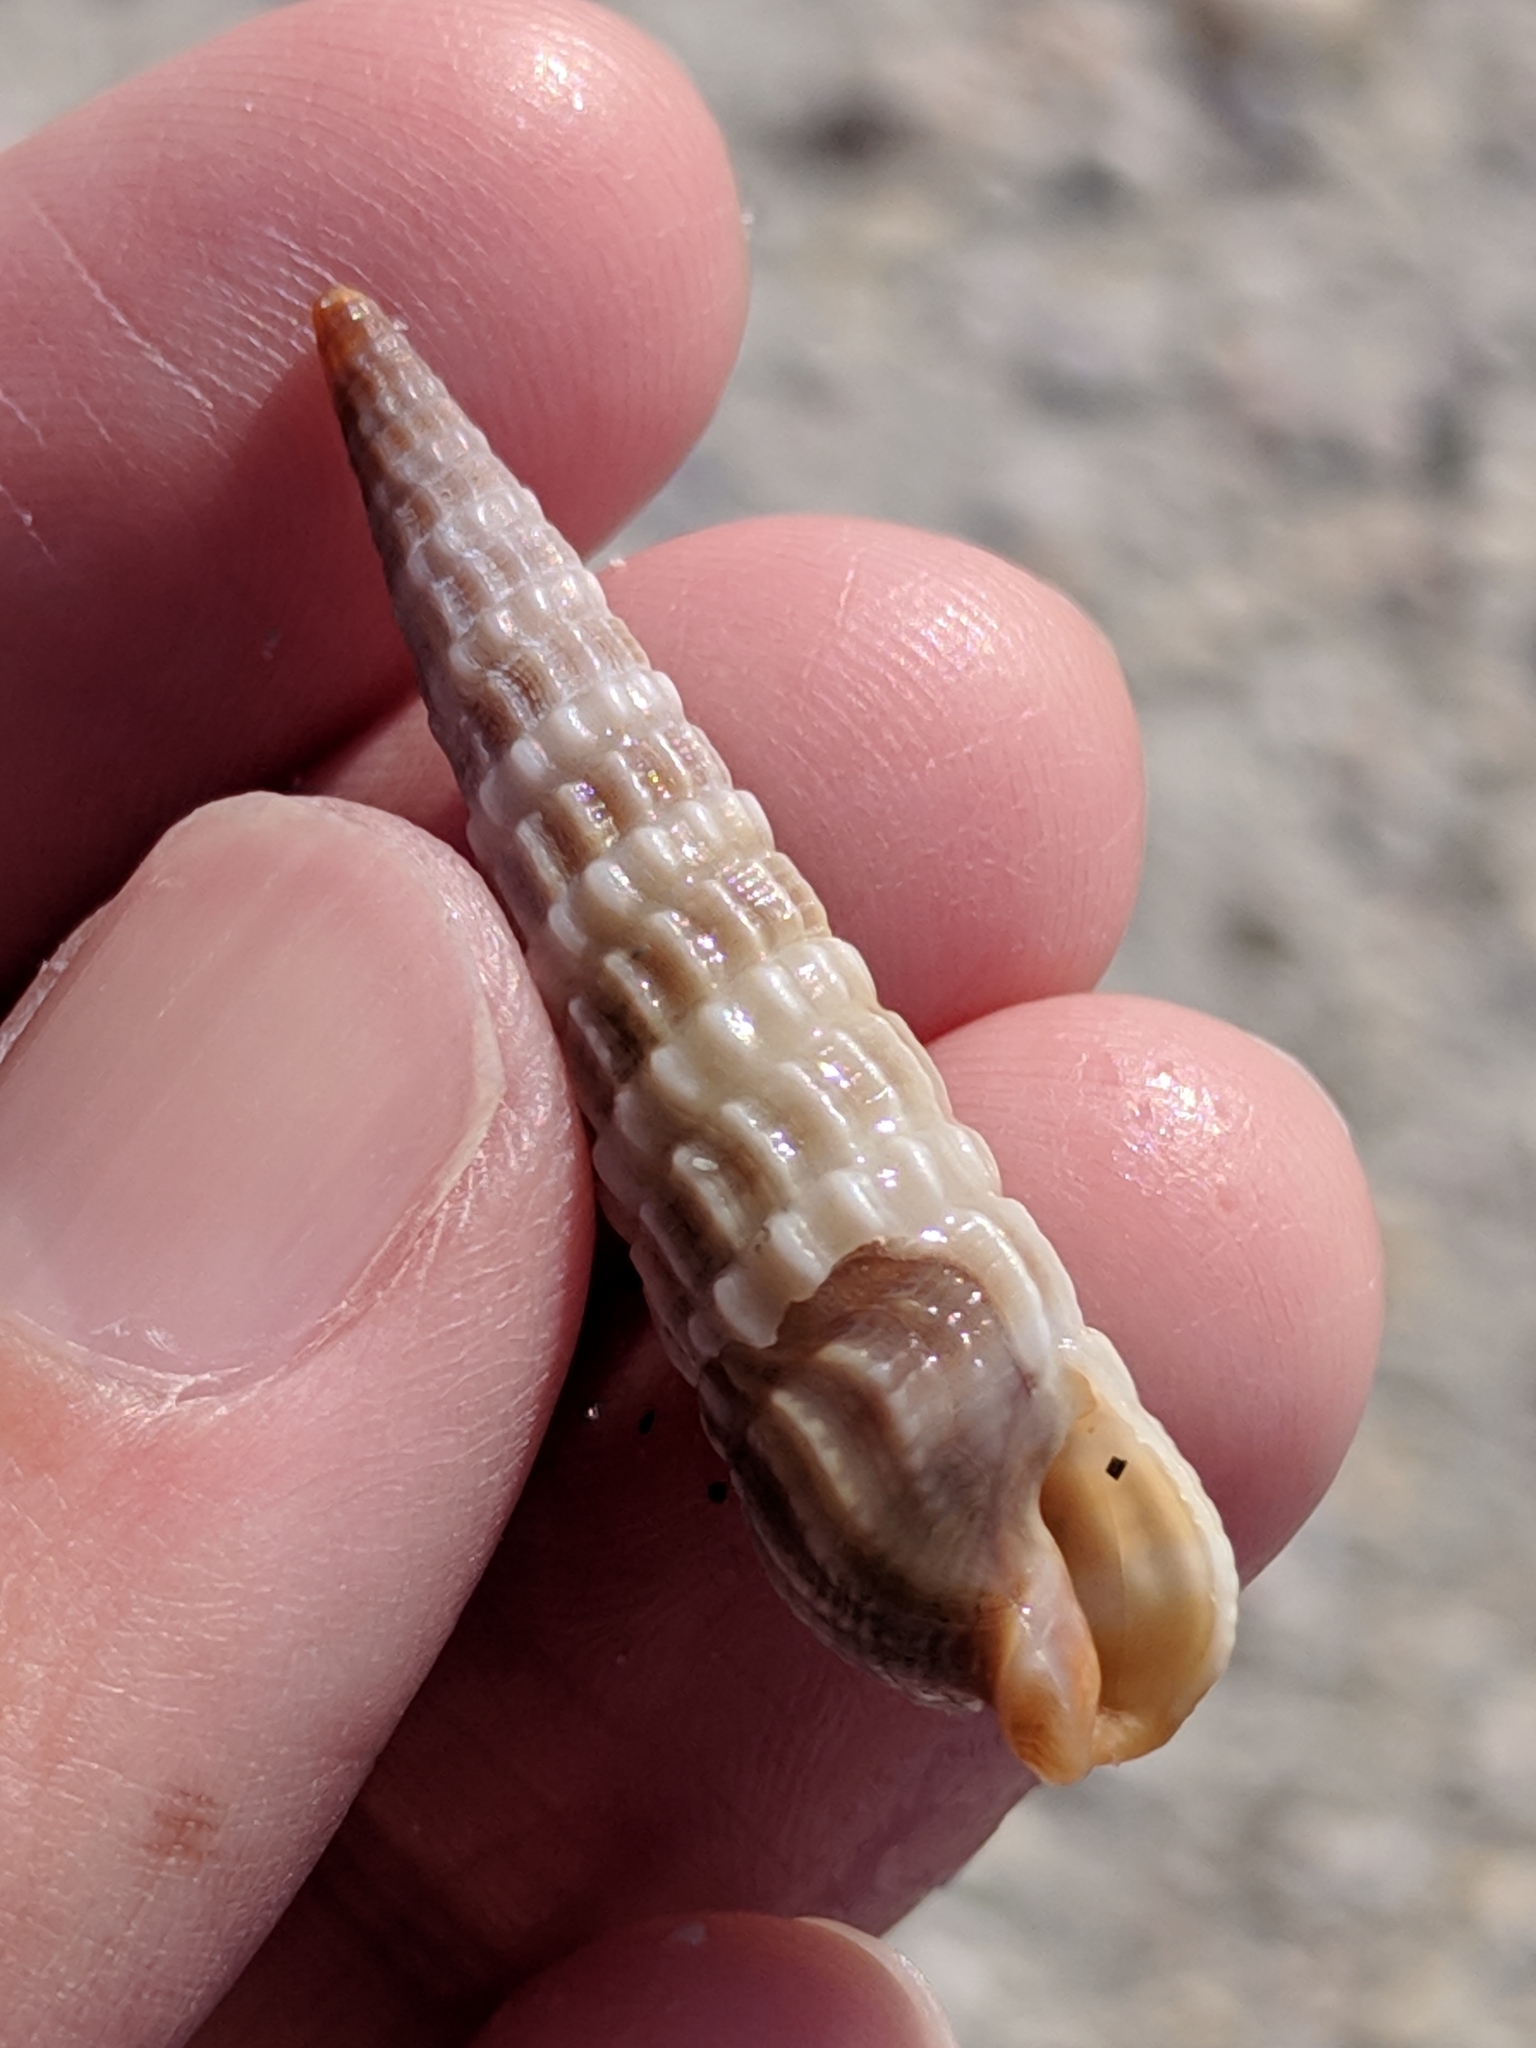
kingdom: Animalia
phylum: Mollusca
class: Gastropoda
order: Neogastropoda
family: Terebridae
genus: Neoterebra
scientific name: Neoterebra dislocata
